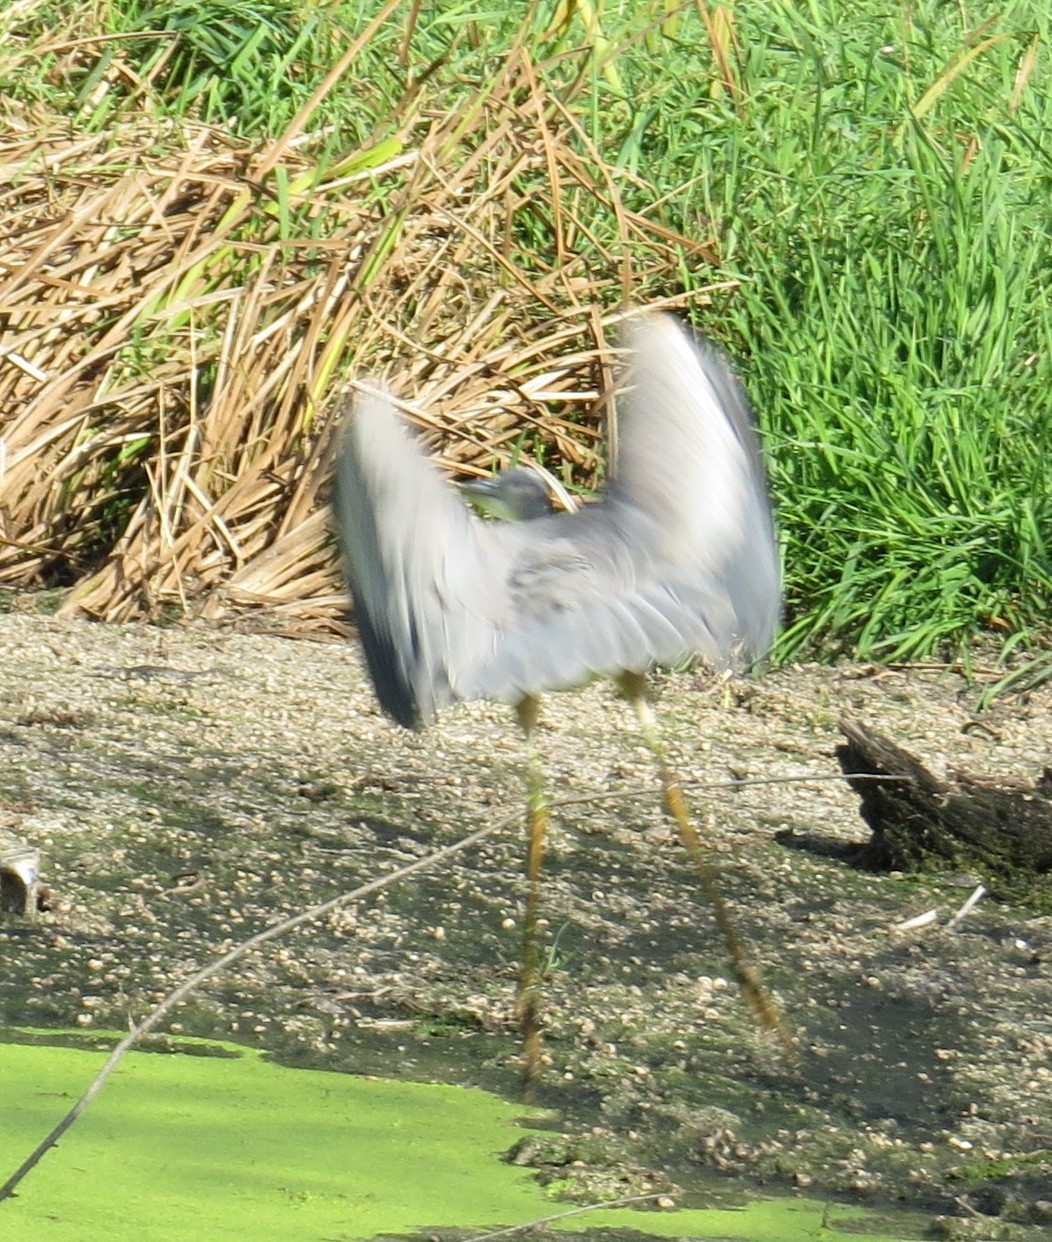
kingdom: Animalia
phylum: Chordata
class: Aves
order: Pelecaniformes
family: Ardeidae
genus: Ardea
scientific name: Ardea herodias
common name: Great blue heron
